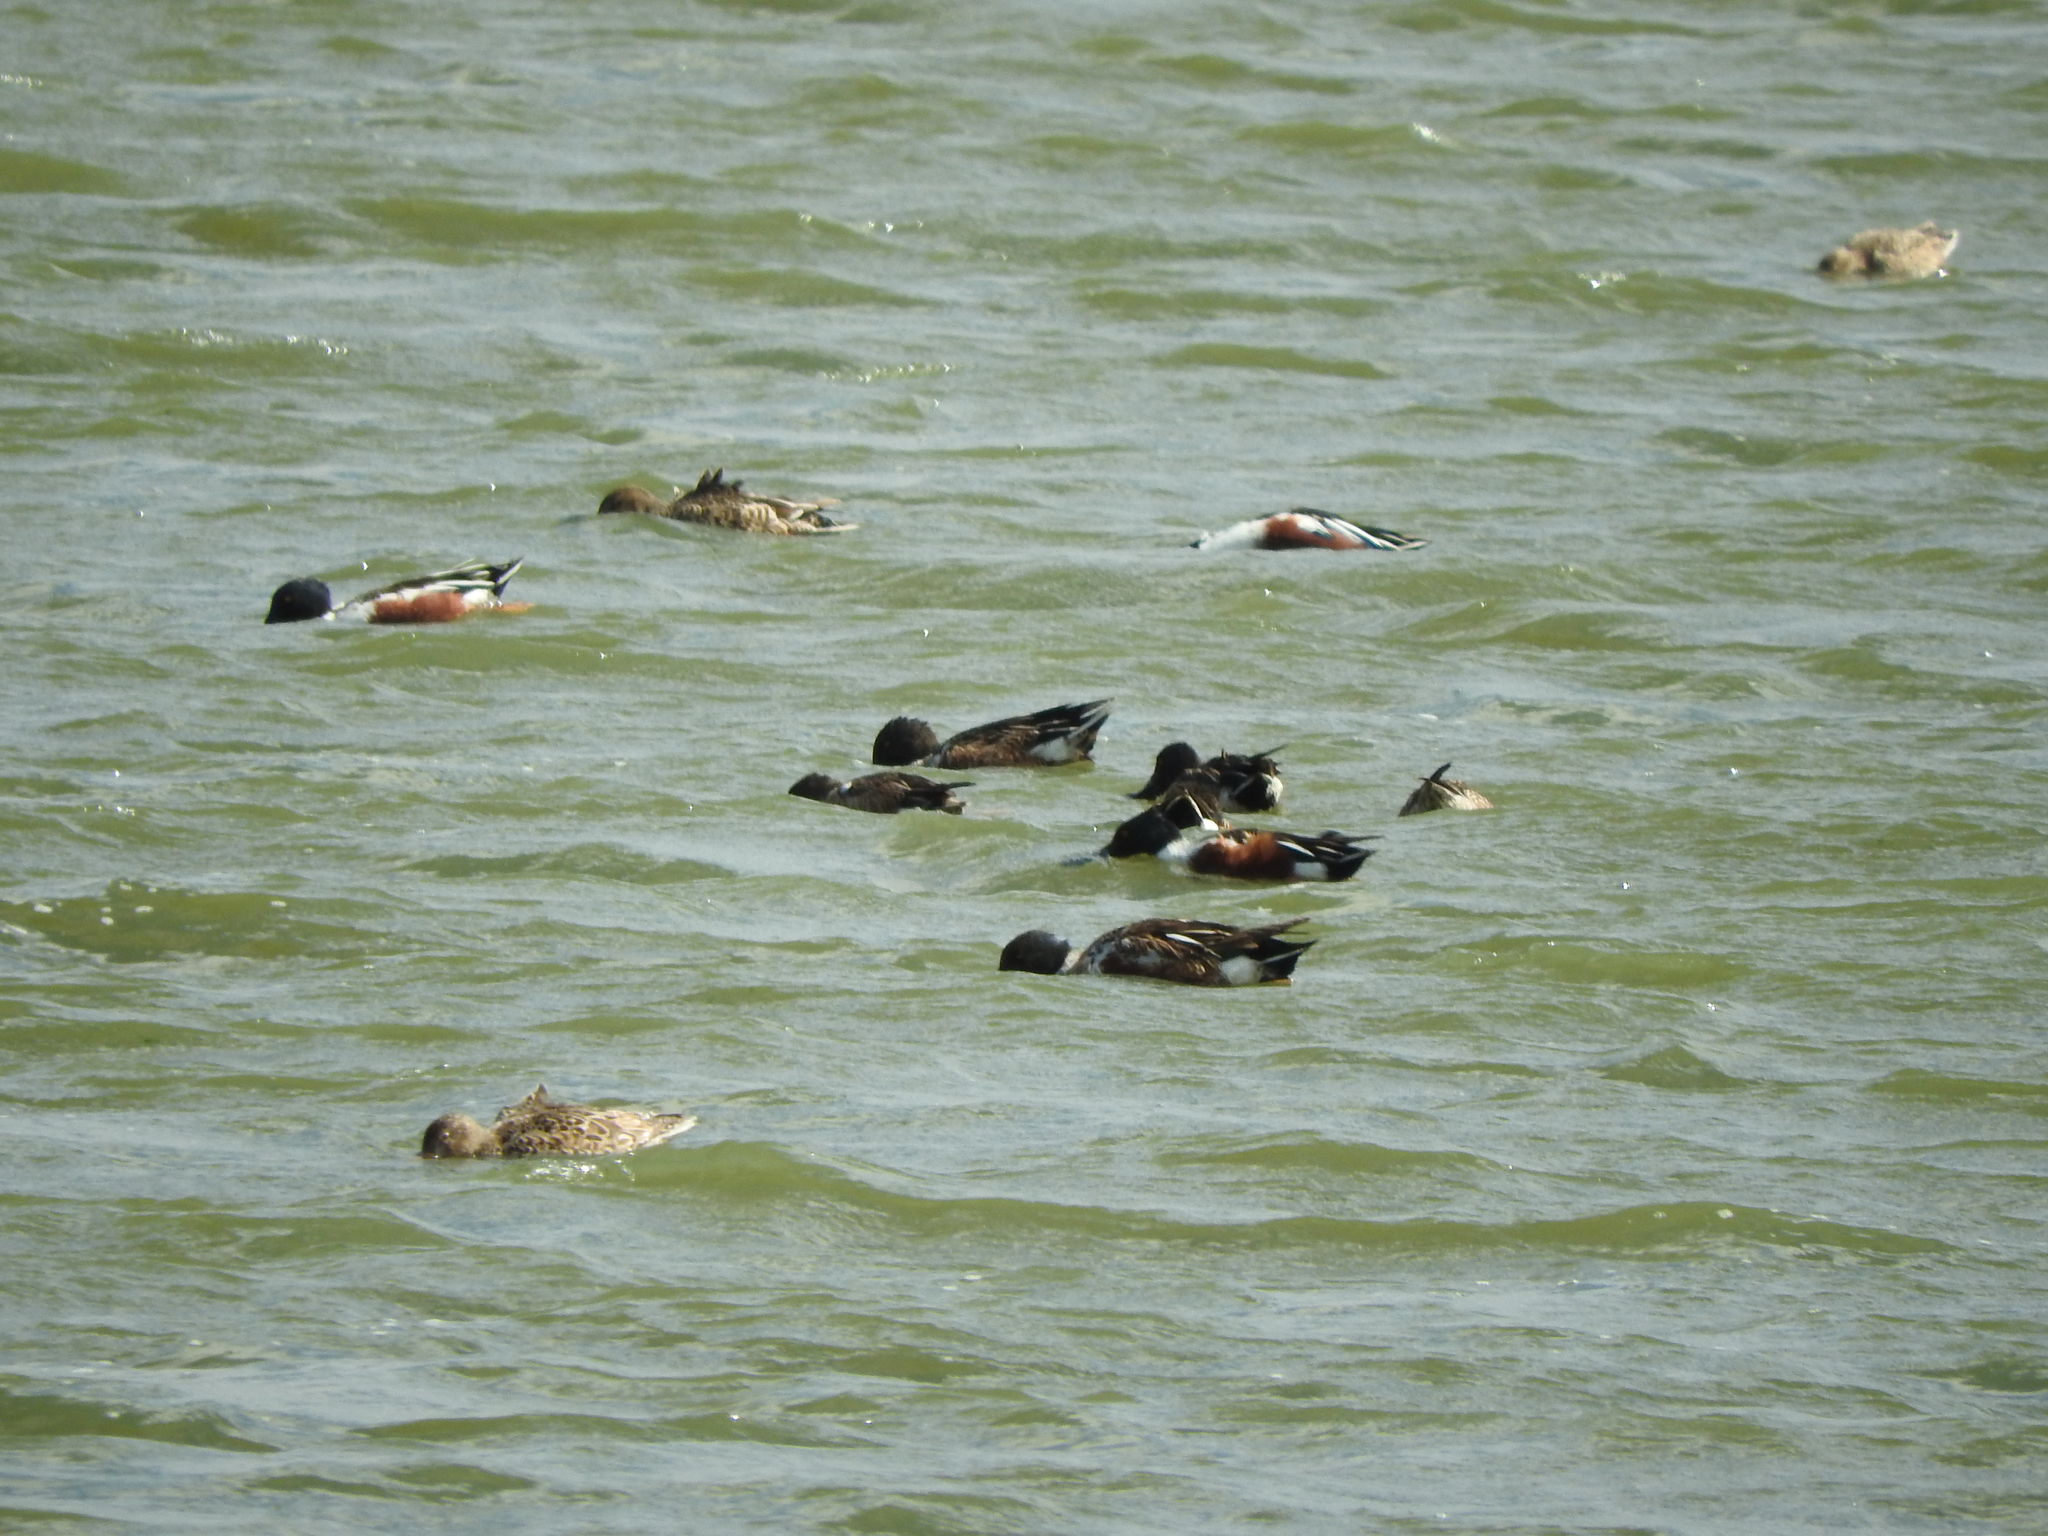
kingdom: Animalia
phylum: Chordata
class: Aves
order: Anseriformes
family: Anatidae
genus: Spatula
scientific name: Spatula clypeata
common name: Northern shoveler
